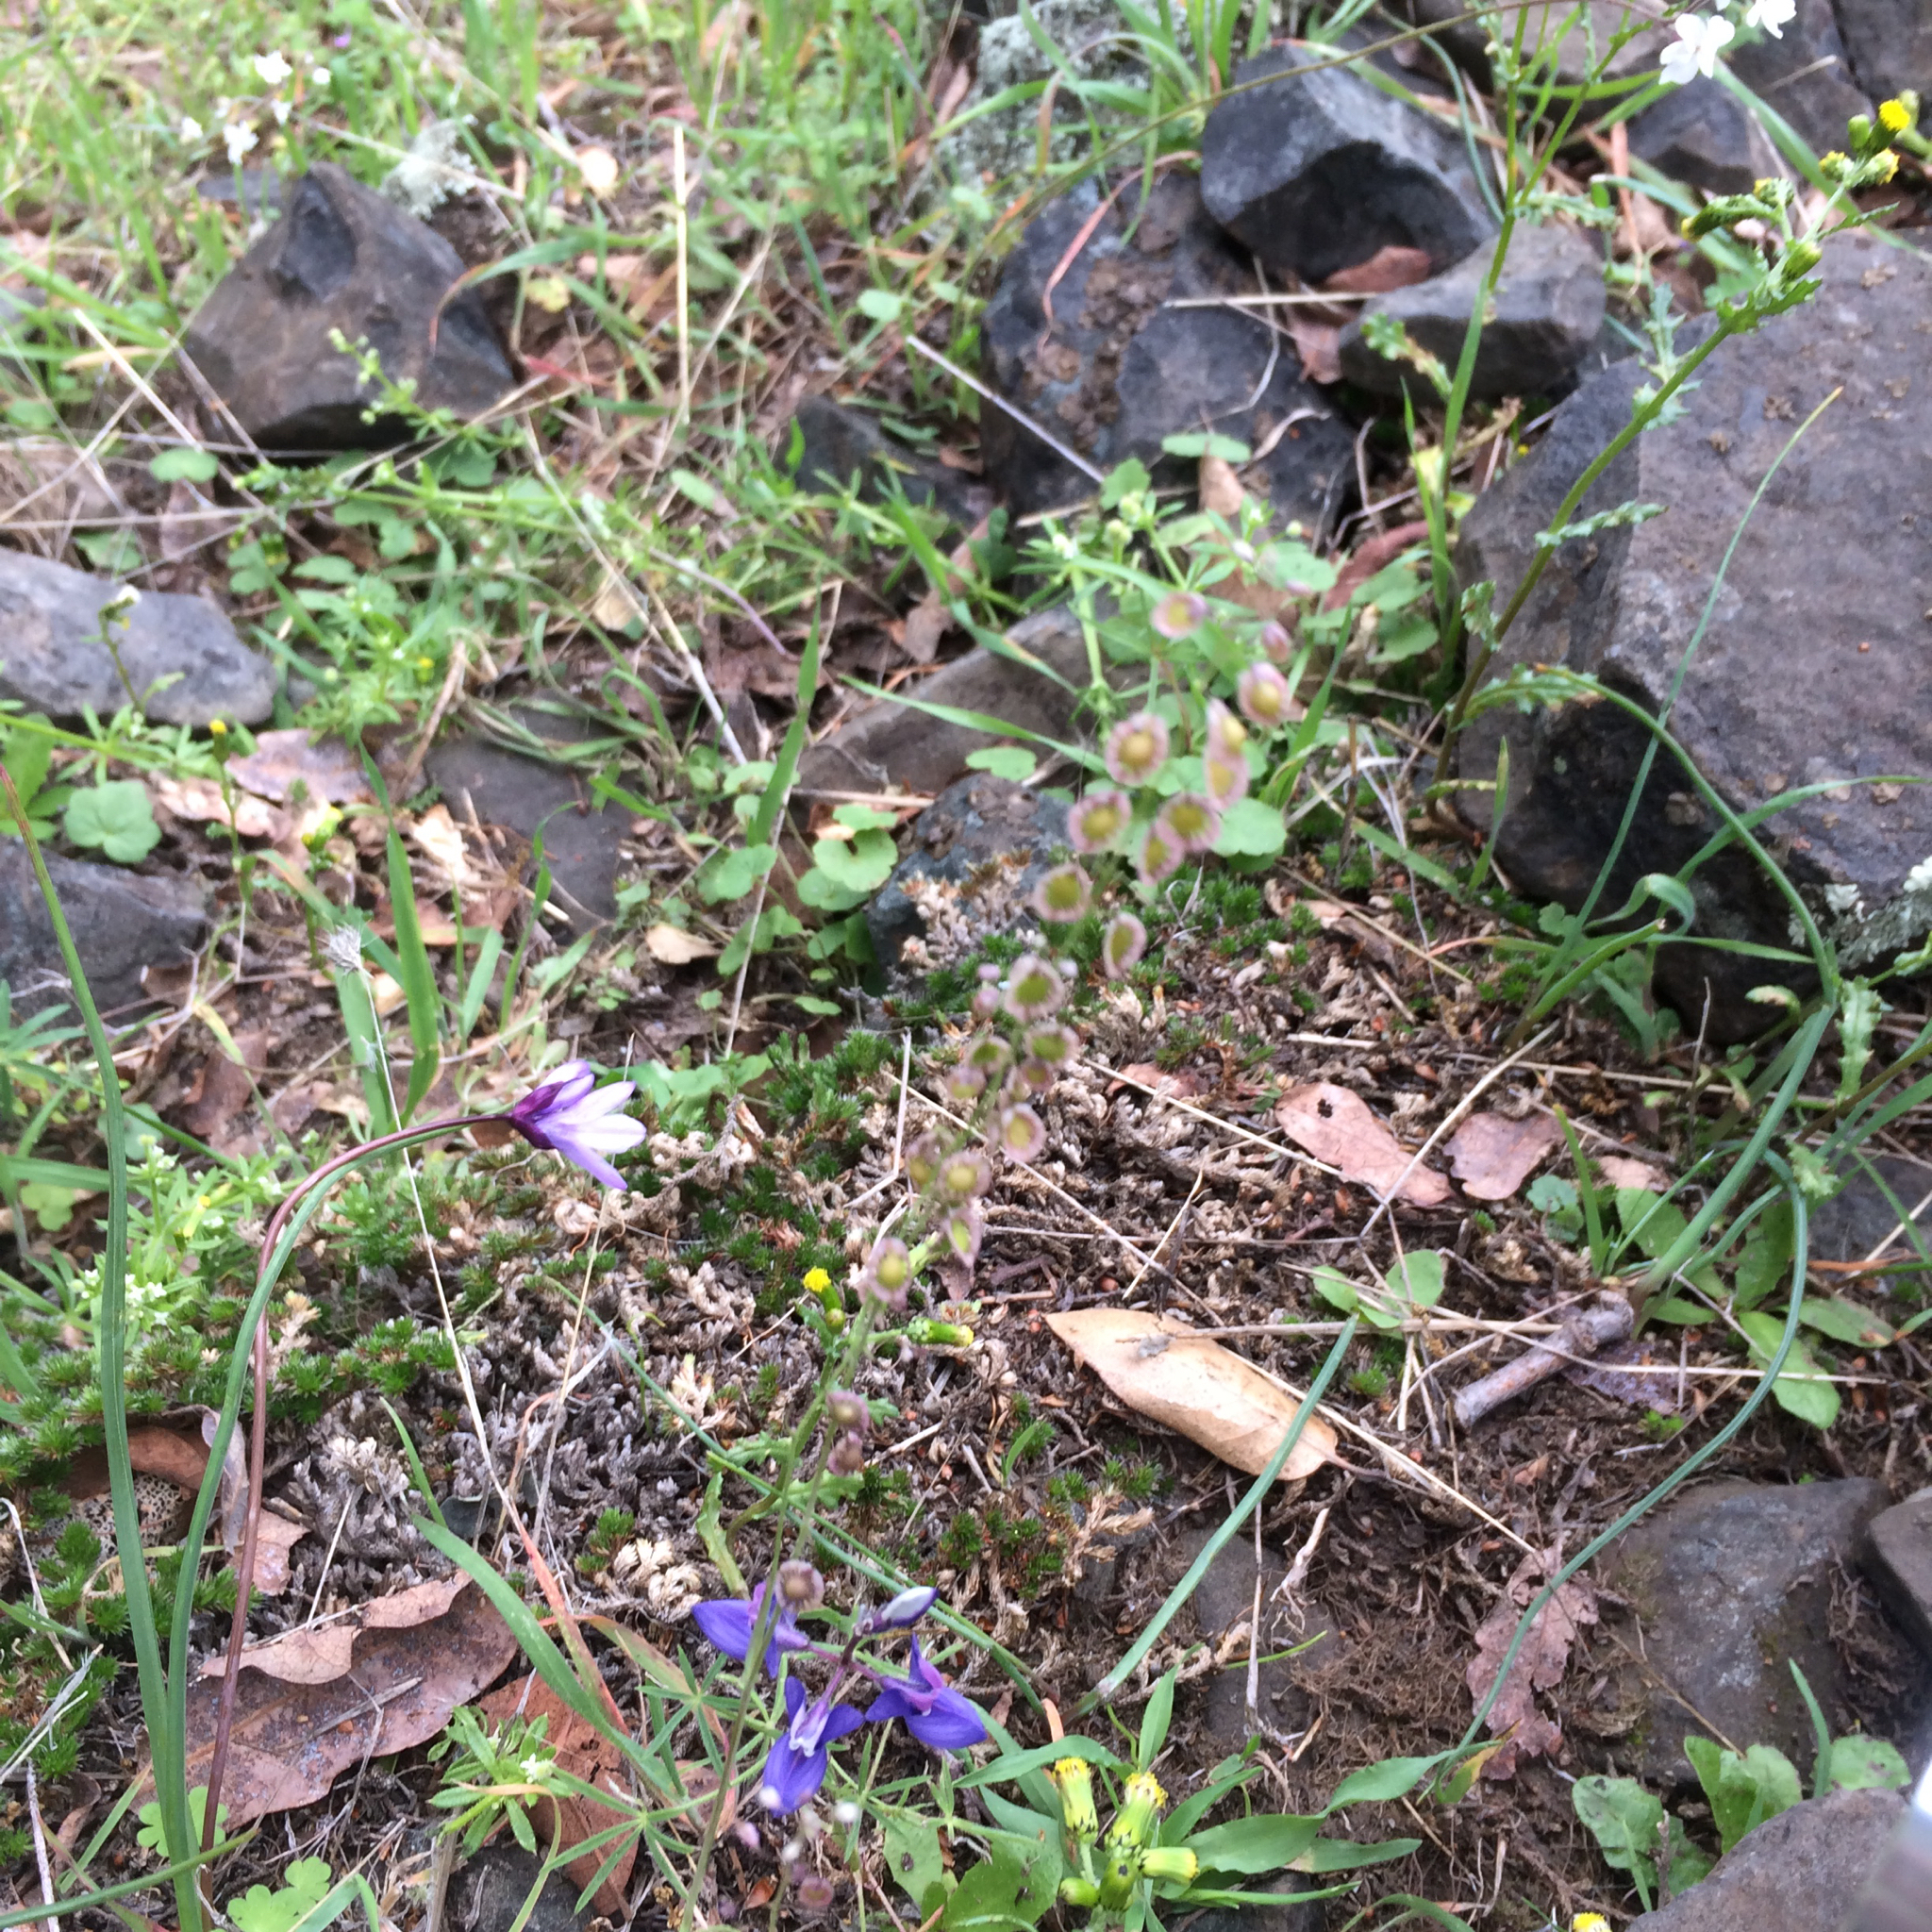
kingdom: Plantae
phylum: Tracheophyta
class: Magnoliopsida
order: Brassicales
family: Brassicaceae
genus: Thysanocarpus
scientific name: Thysanocarpus curvipes
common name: Sand fringepod
